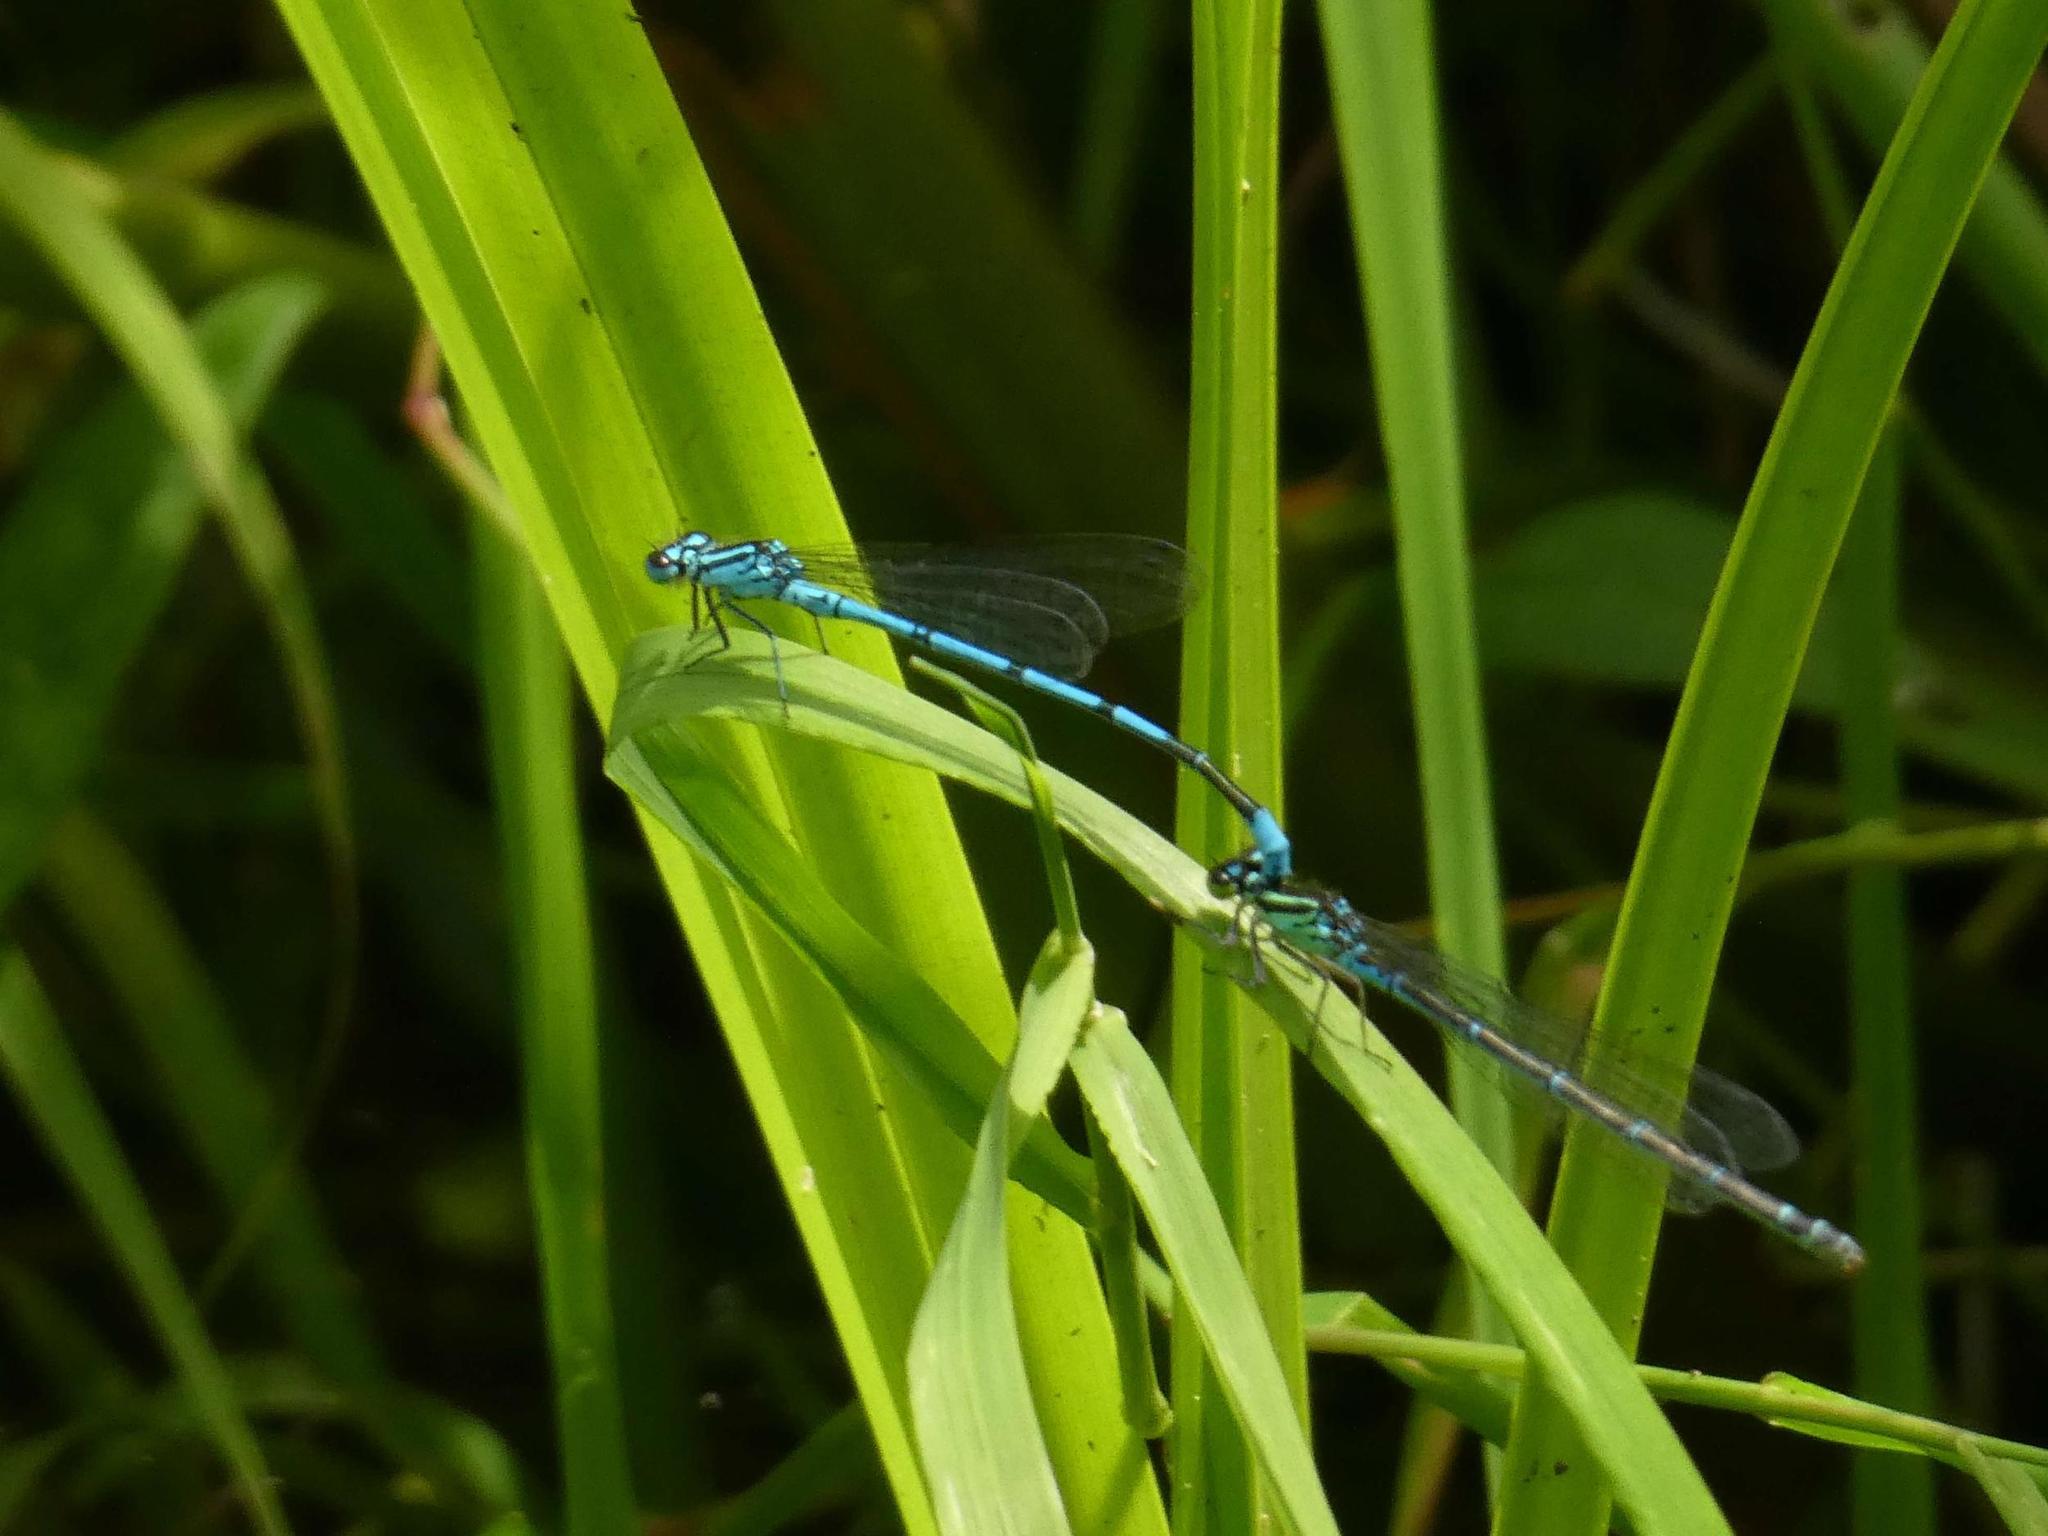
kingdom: Animalia
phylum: Arthropoda
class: Insecta
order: Odonata
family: Coenagrionidae
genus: Coenagrion
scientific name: Coenagrion puella
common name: Azure damselfly
